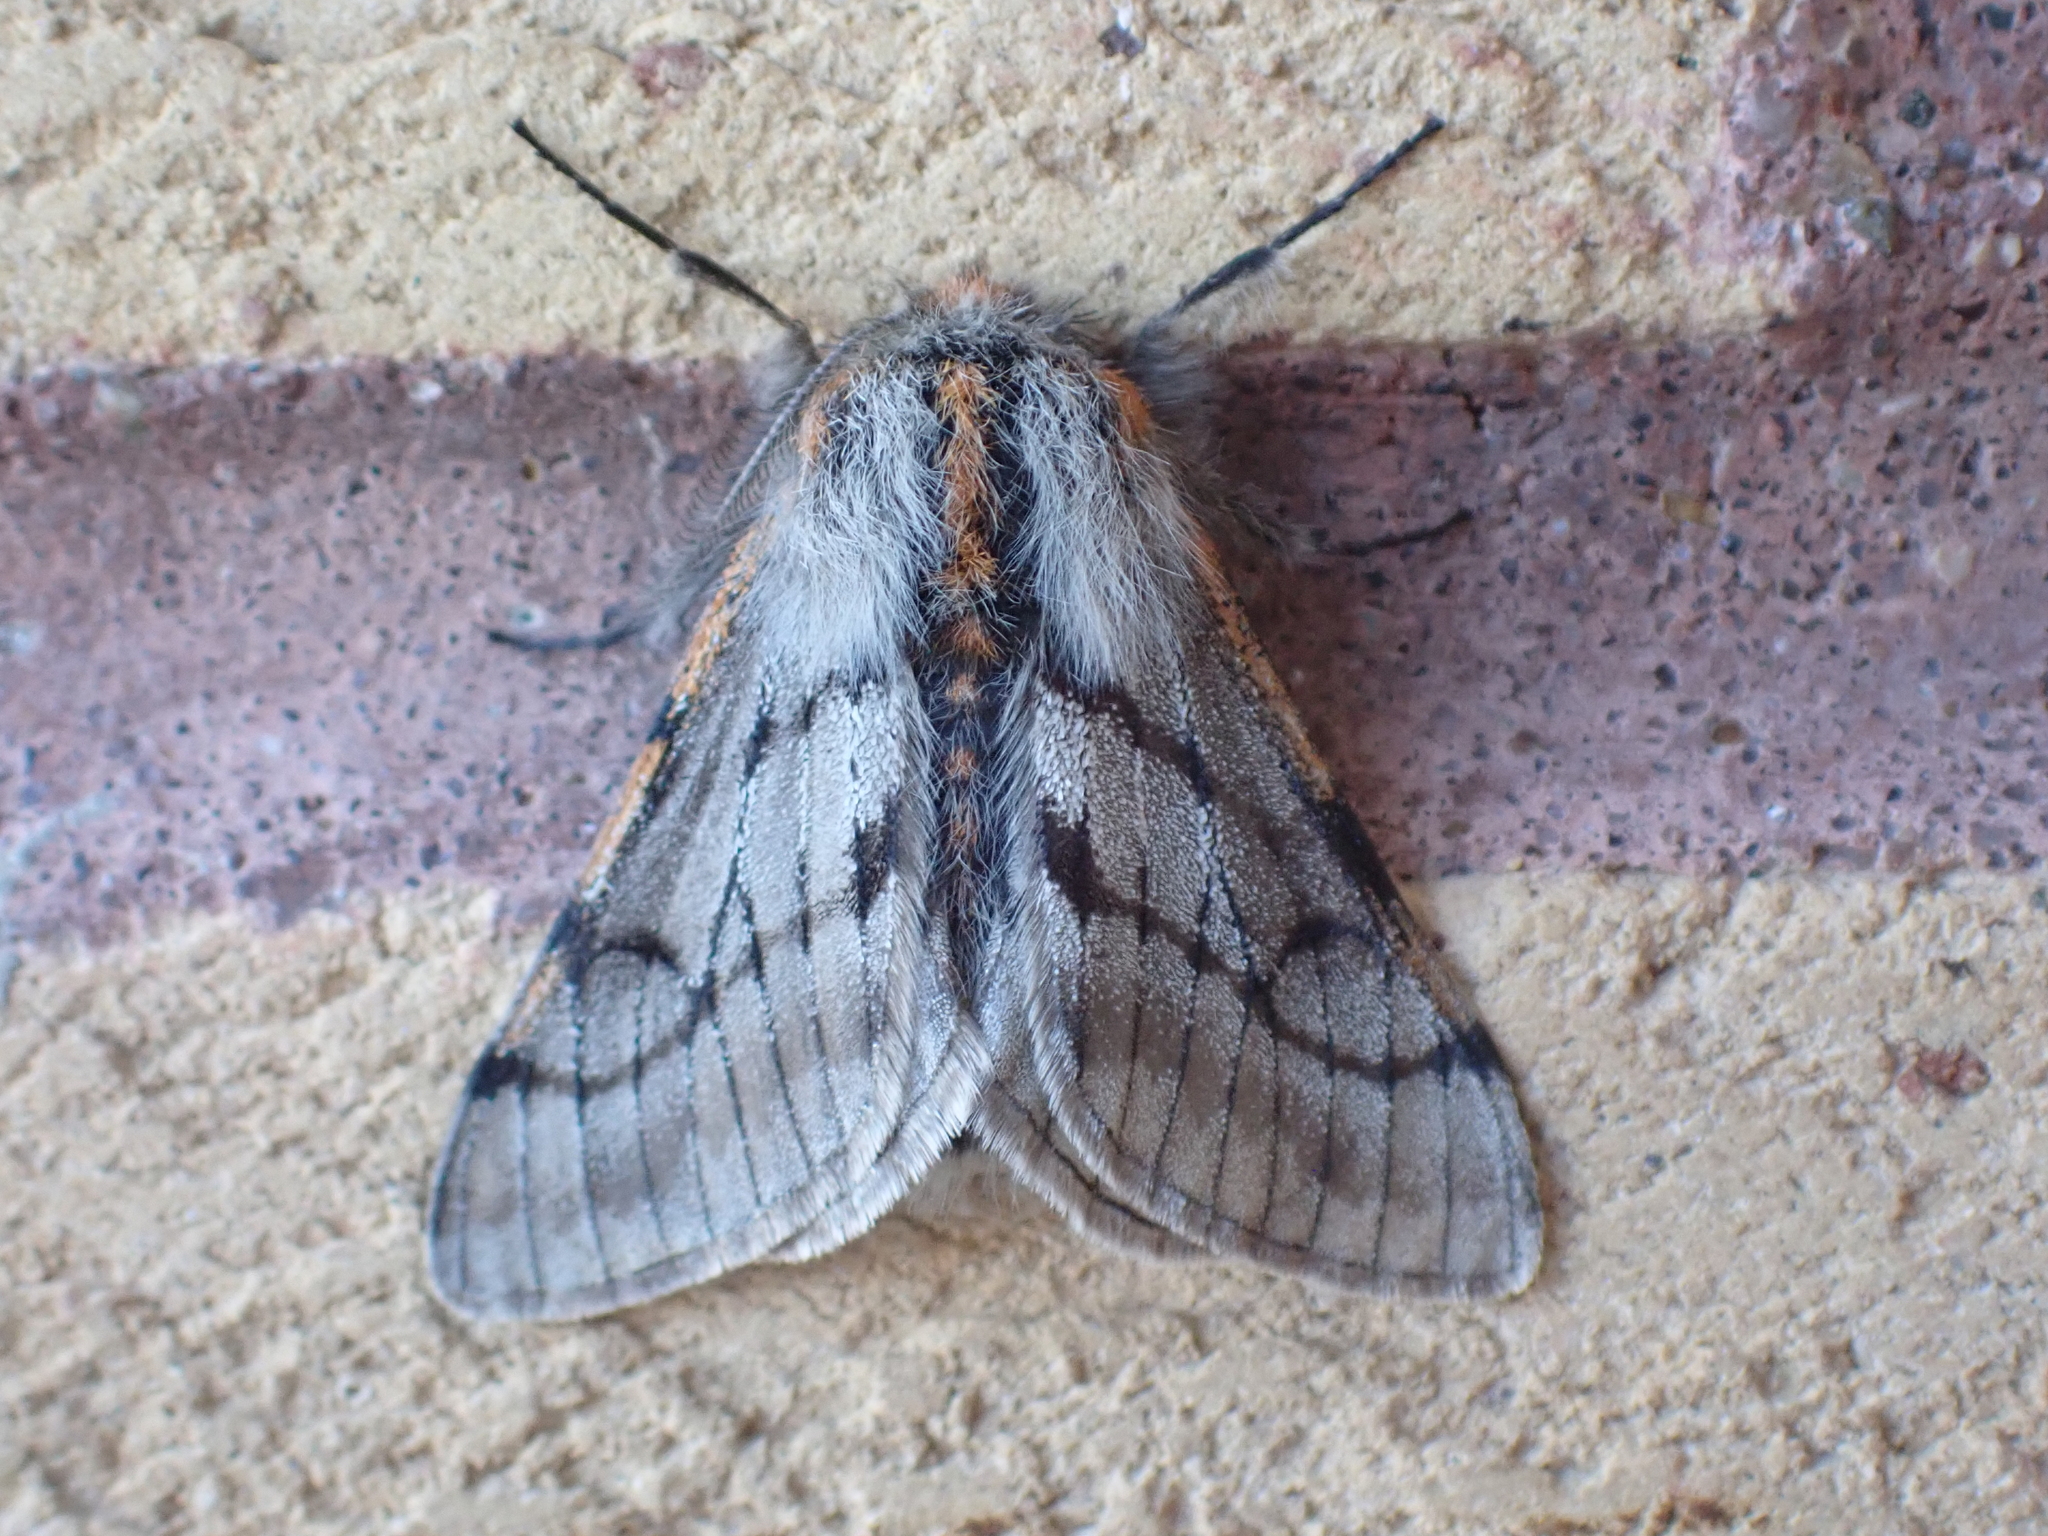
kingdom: Animalia
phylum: Arthropoda
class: Insecta
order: Lepidoptera
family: Geometridae
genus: Lycia
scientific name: Lycia rachelae
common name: Twilight moth
